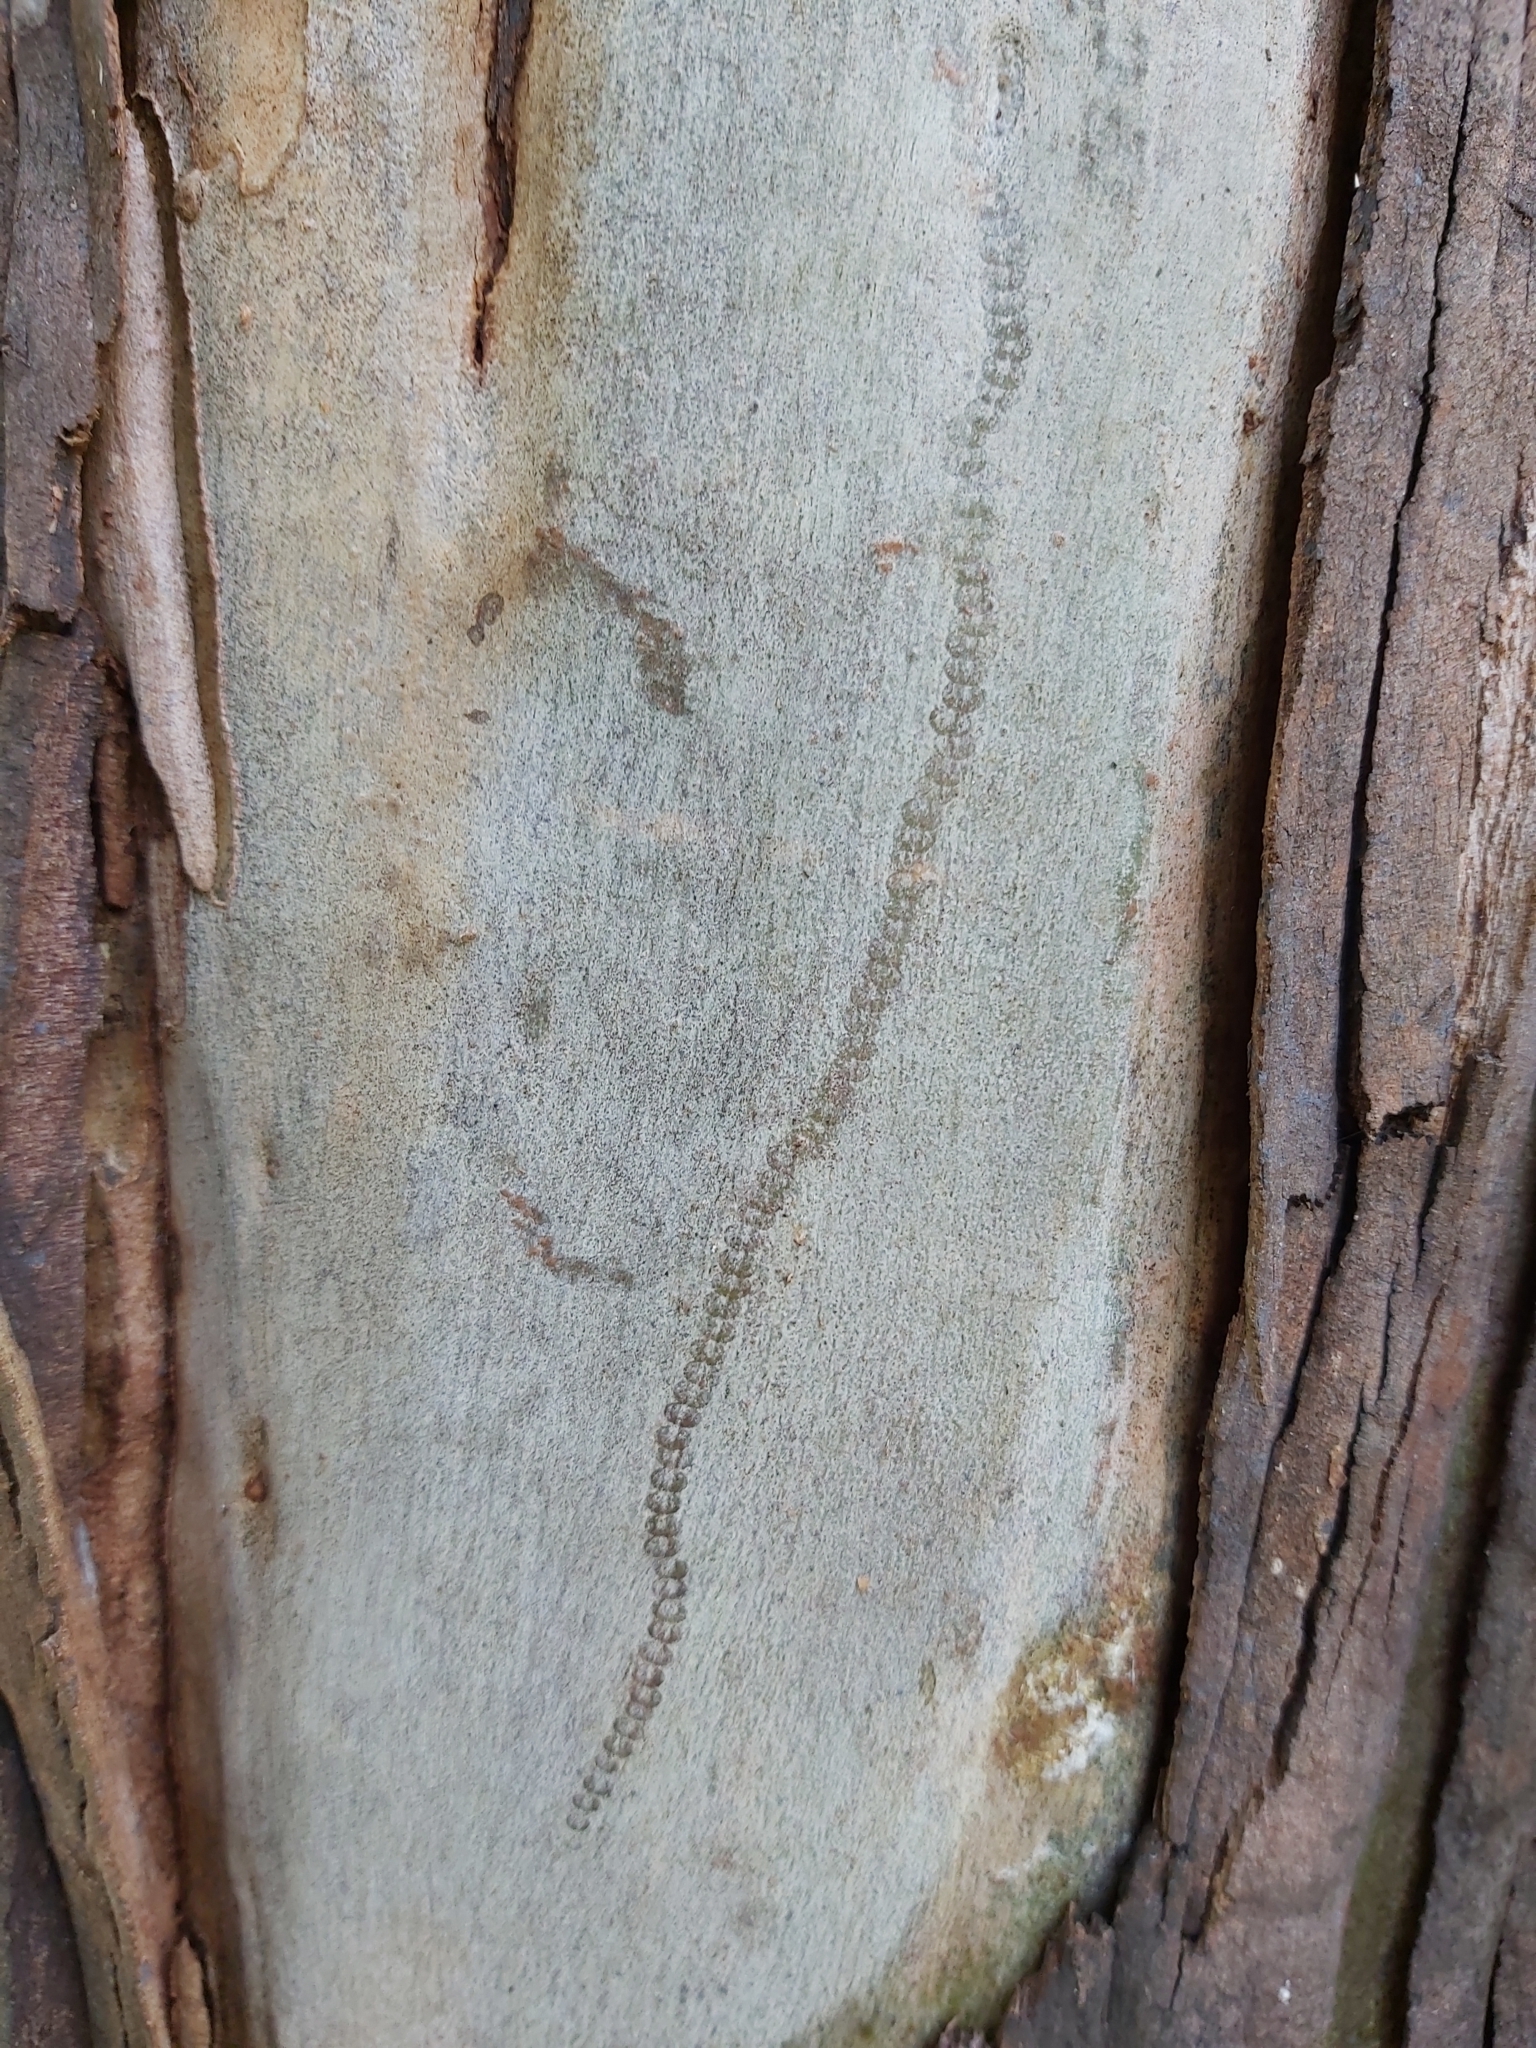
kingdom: Animalia
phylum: Mollusca
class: Gastropoda
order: Stylommatophora
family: Athoracophoridae
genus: Triboniophorus
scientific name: Triboniophorus graeffei
